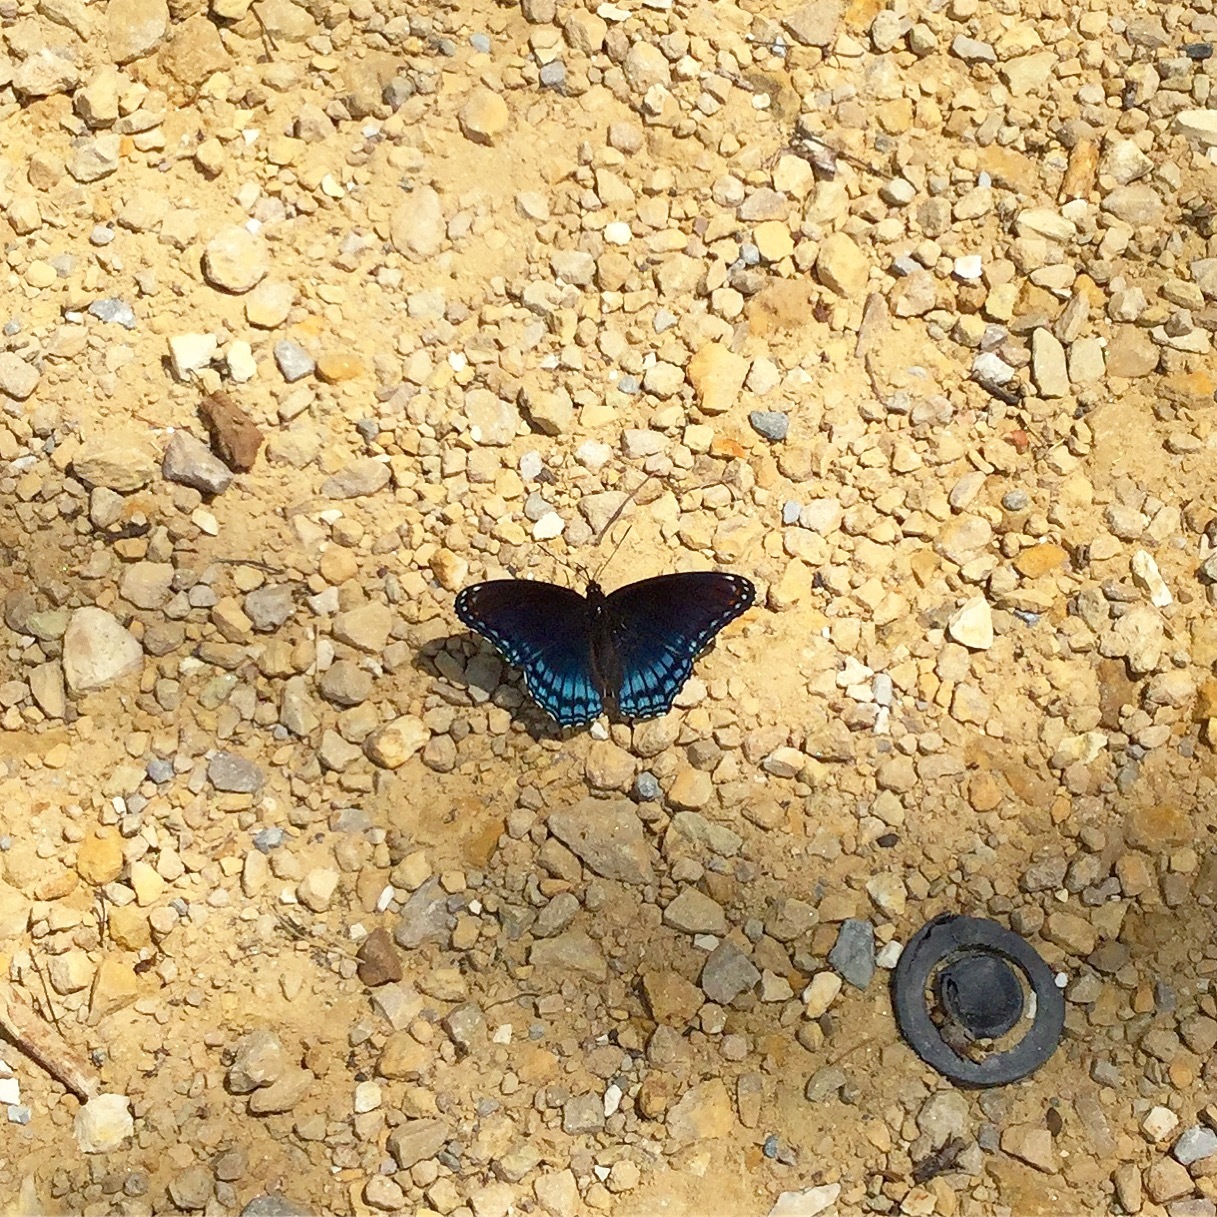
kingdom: Animalia
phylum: Arthropoda
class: Insecta
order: Lepidoptera
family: Nymphalidae
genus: Limenitis
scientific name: Limenitis astyanax
